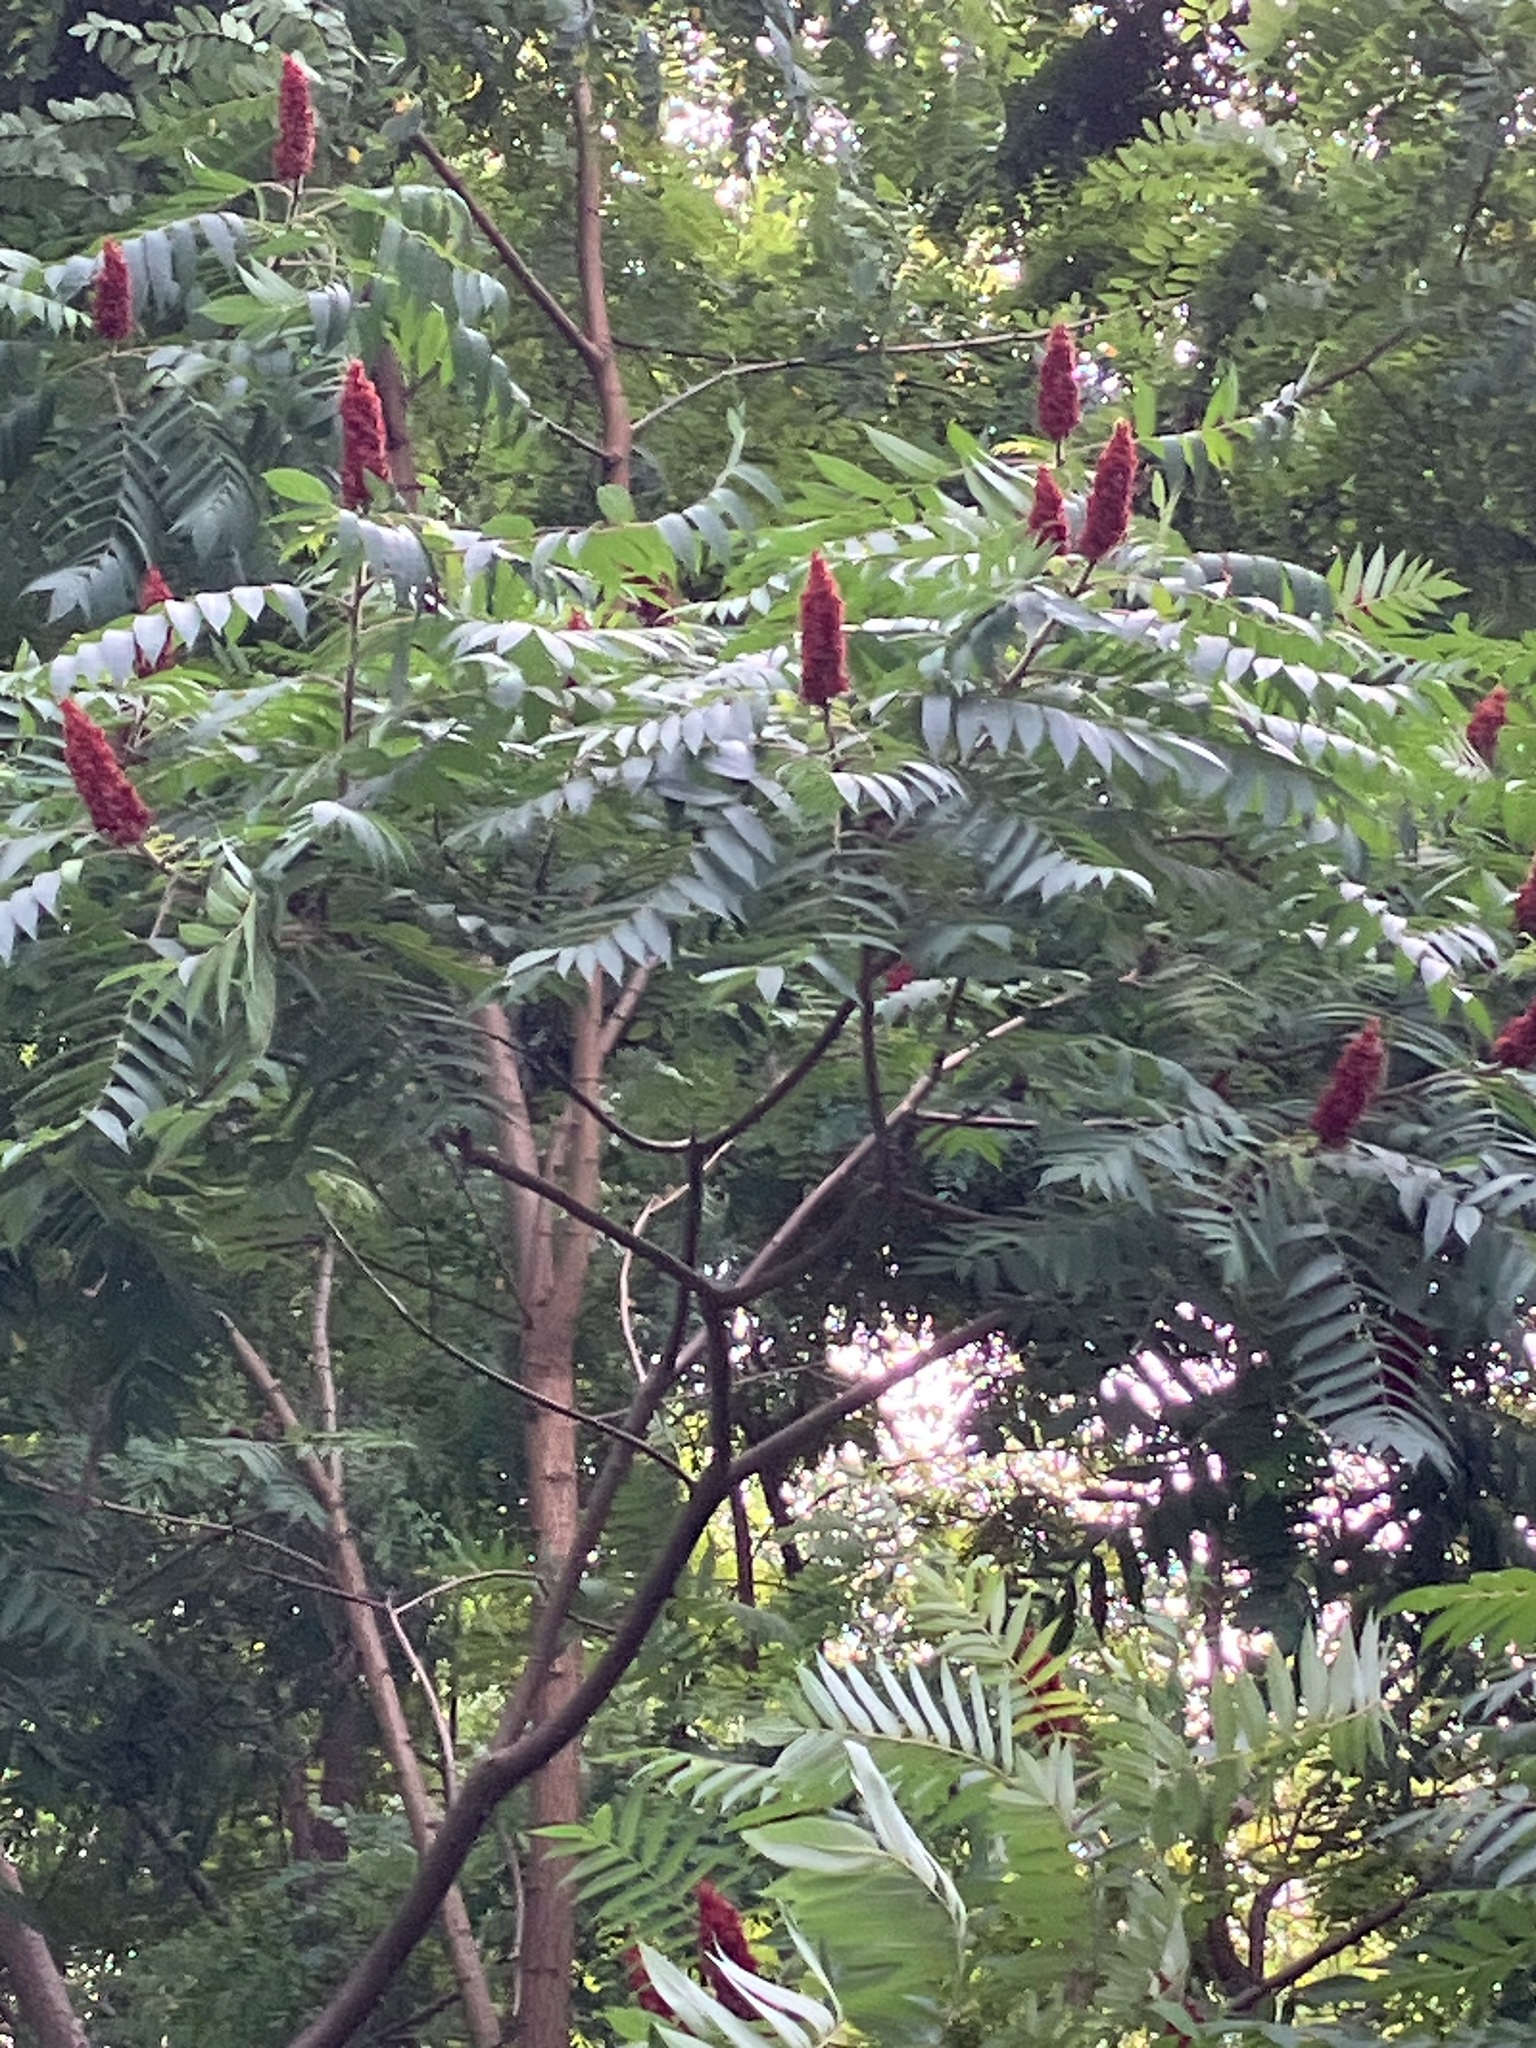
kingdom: Plantae
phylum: Tracheophyta
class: Magnoliopsida
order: Sapindales
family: Anacardiaceae
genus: Rhus
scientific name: Rhus typhina
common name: Staghorn sumac
